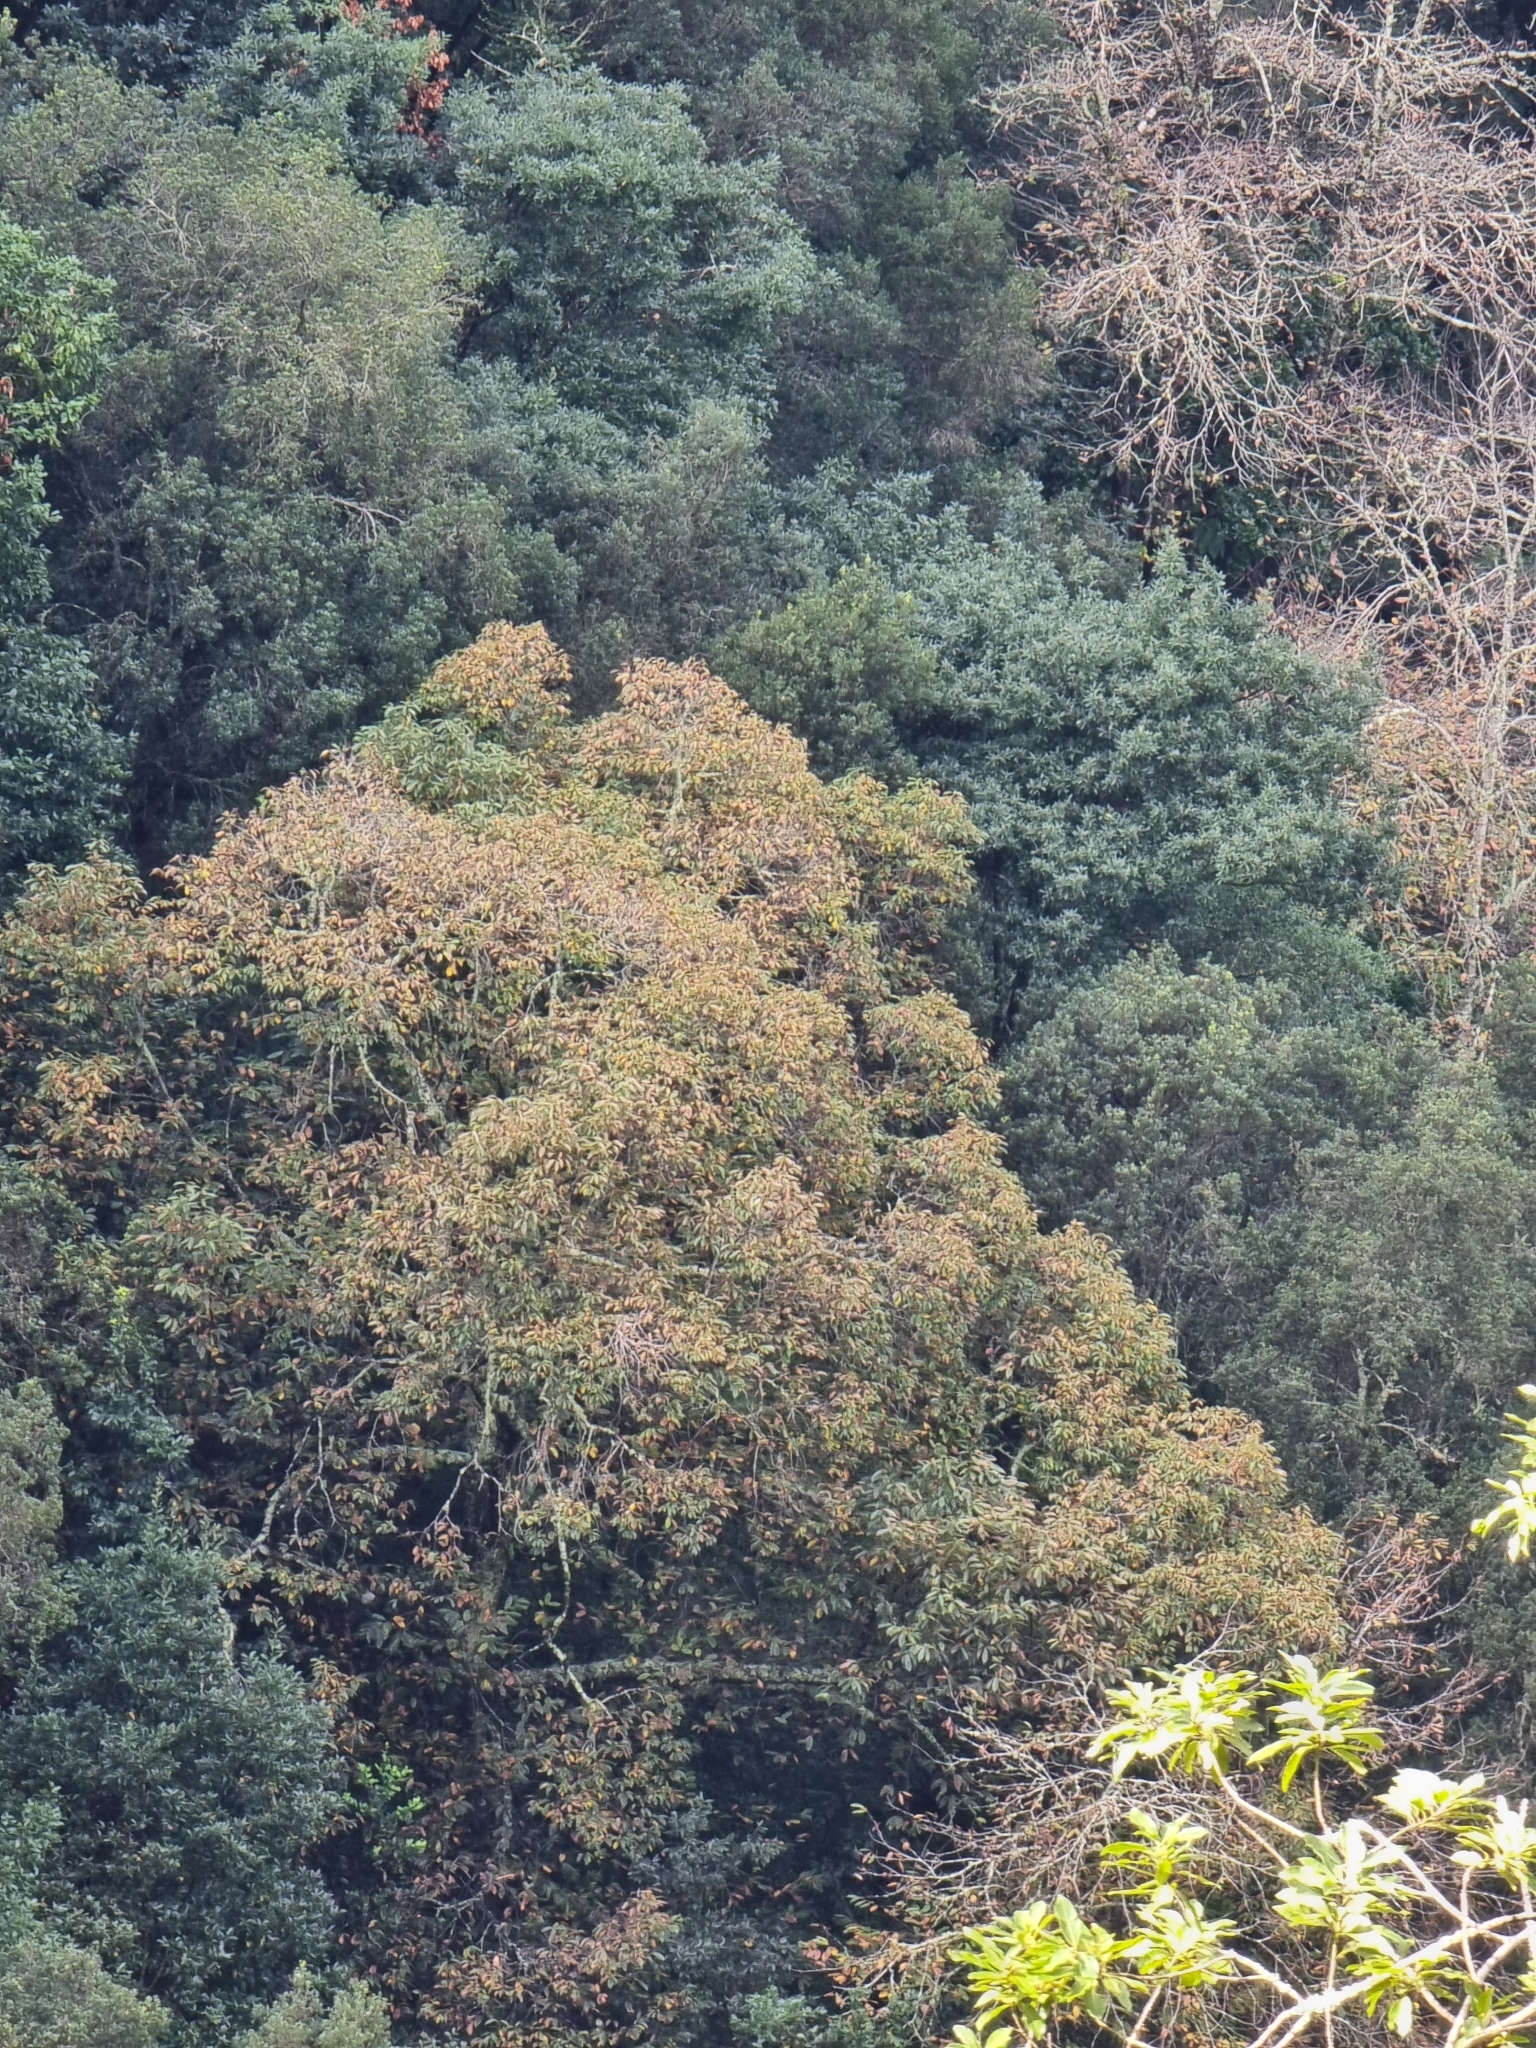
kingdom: Plantae
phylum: Tracheophyta
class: Magnoliopsida
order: Fagales
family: Fagaceae
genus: Castanea
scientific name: Castanea sativa
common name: Sweet chestnut
